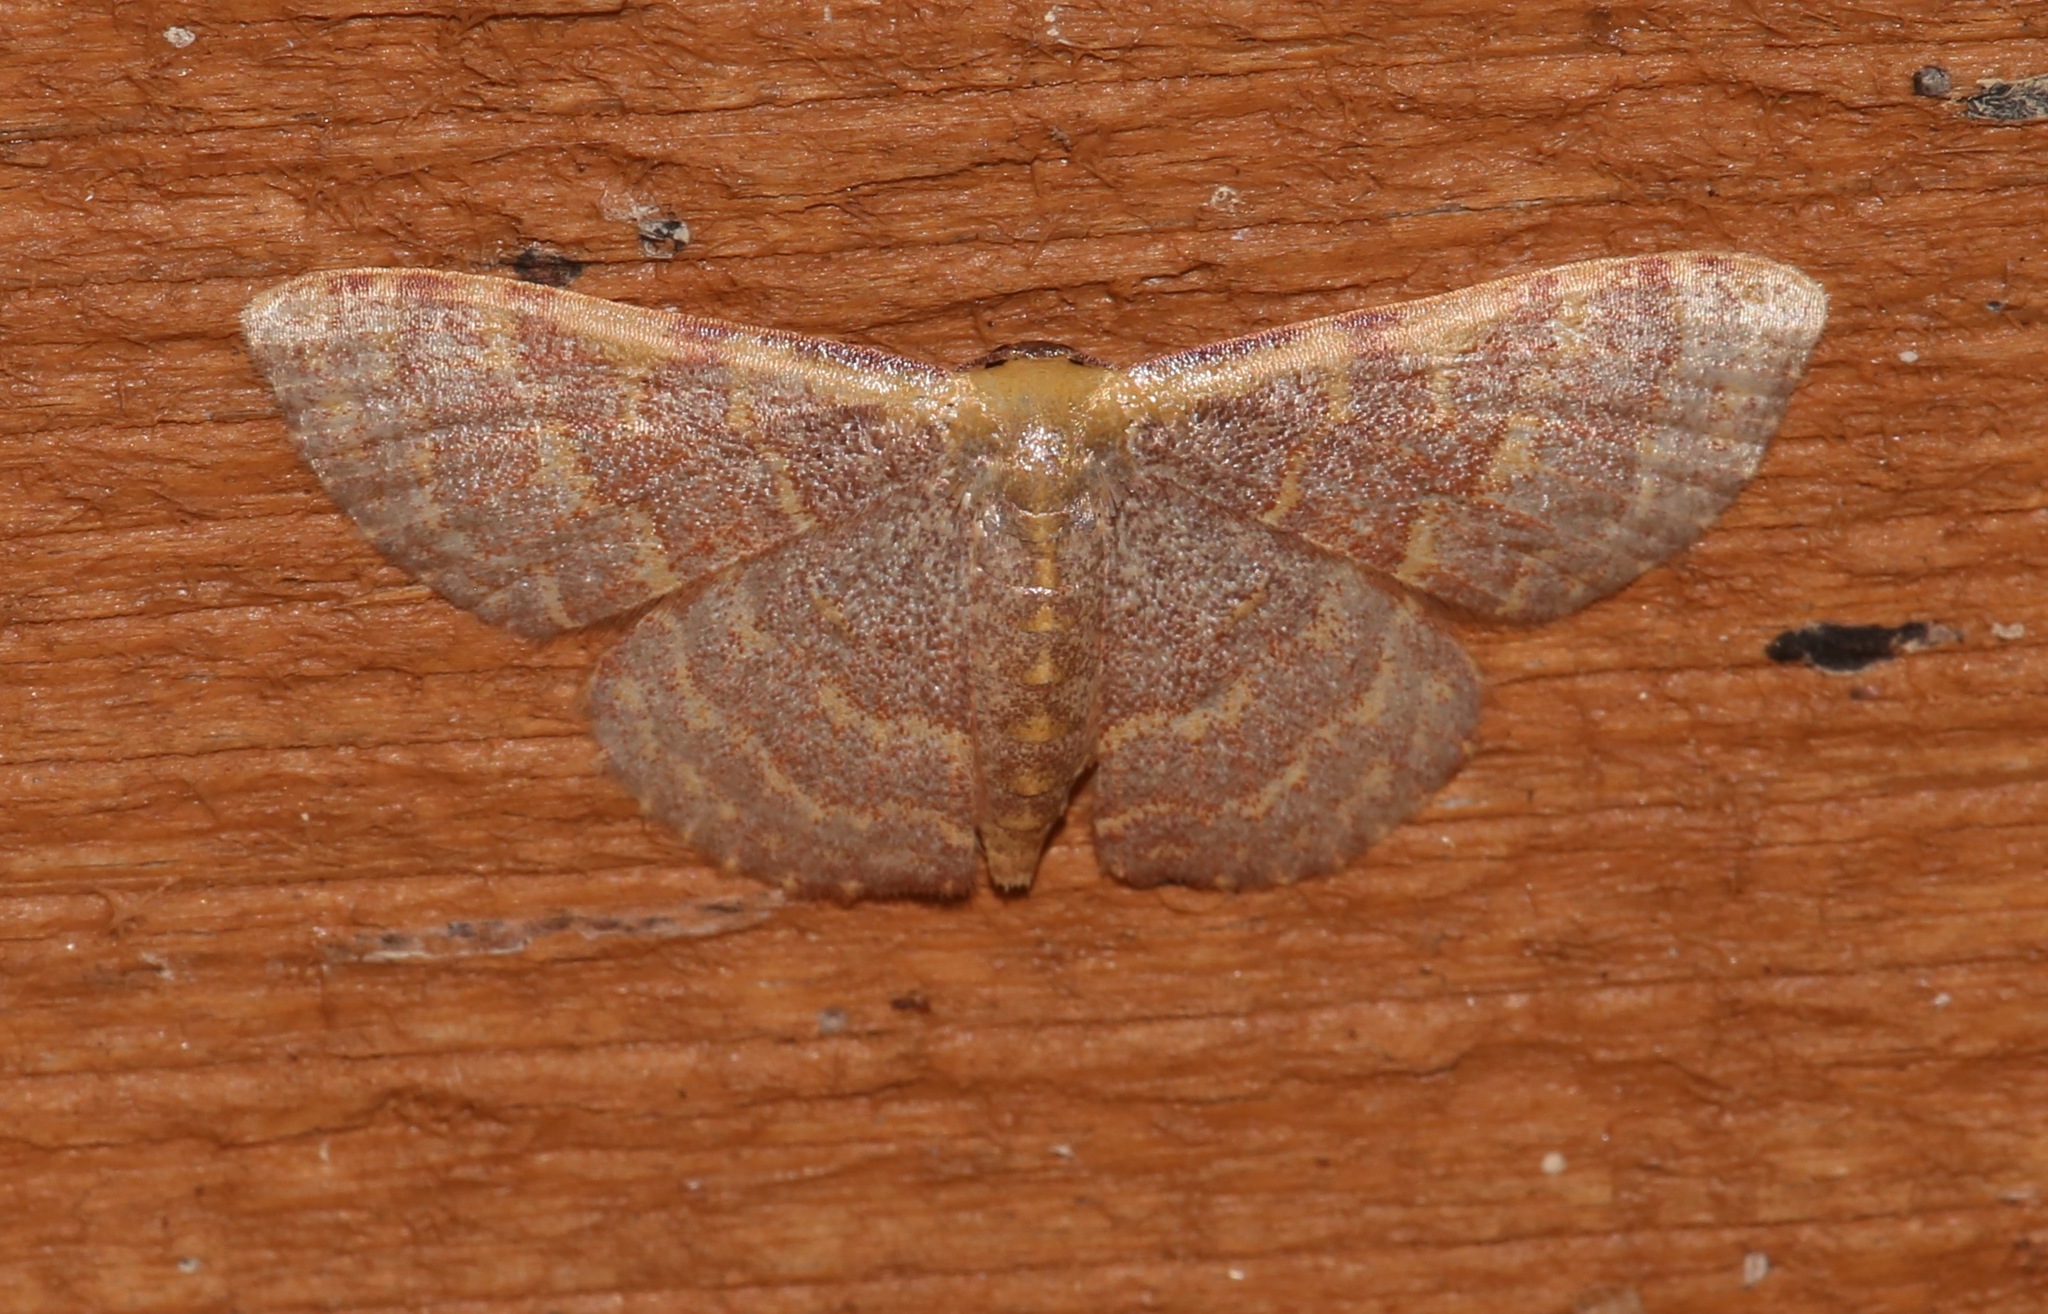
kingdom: Animalia
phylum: Arthropoda
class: Insecta
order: Lepidoptera
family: Geometridae
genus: Leptostales
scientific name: Leptostales pannaria
